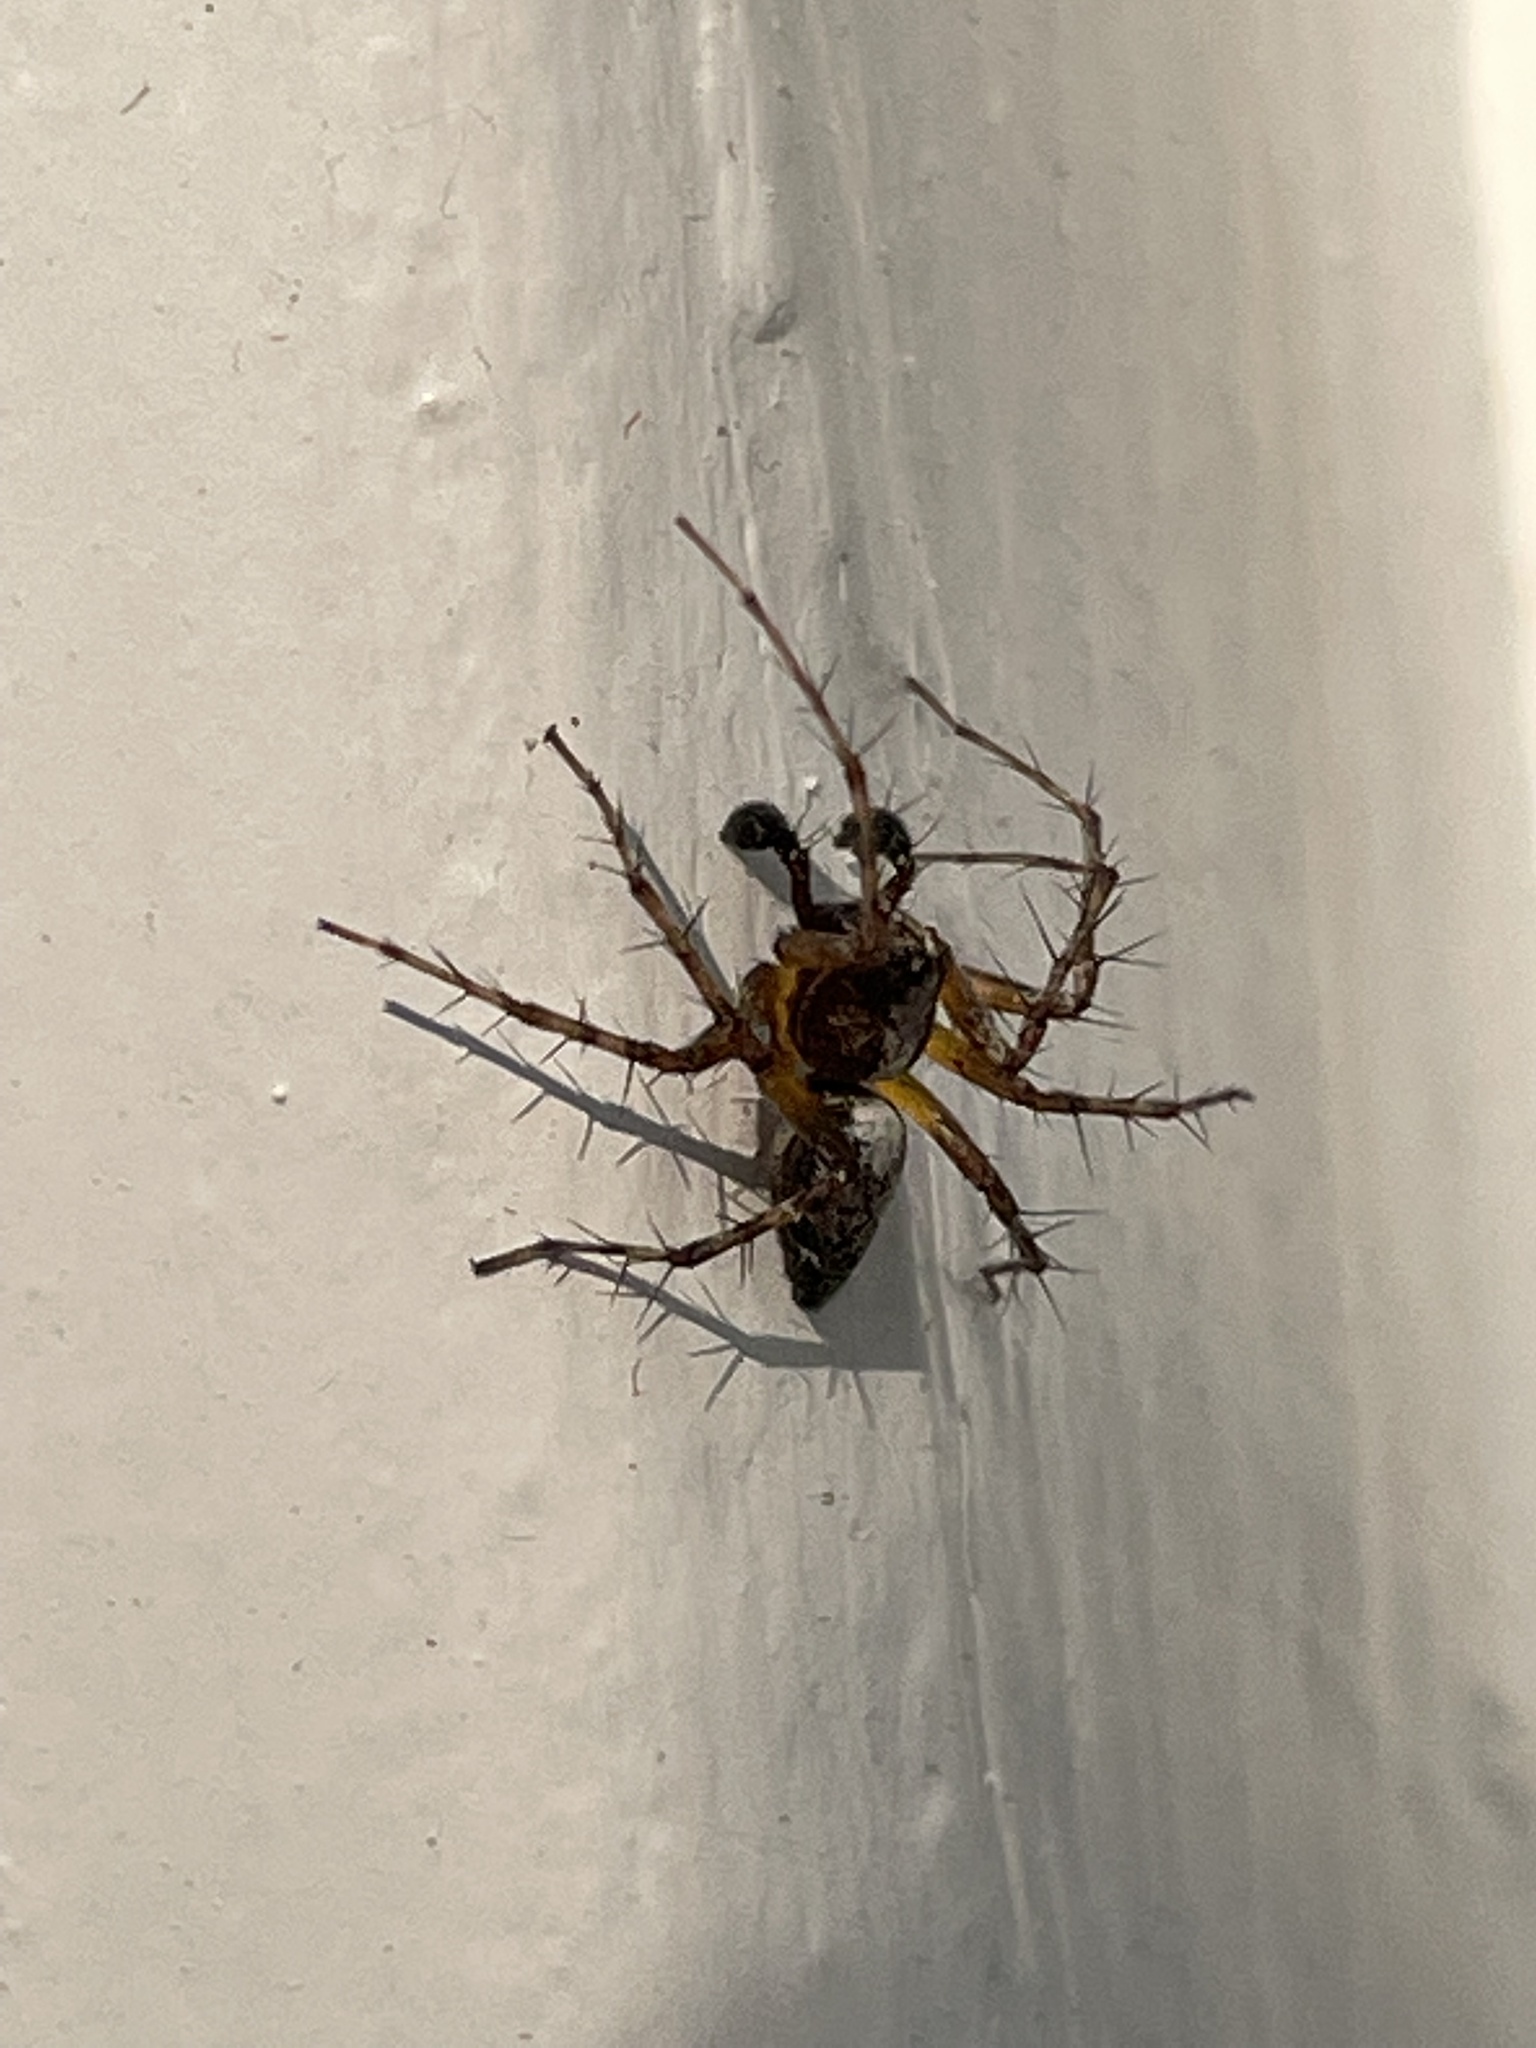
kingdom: Animalia
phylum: Arthropoda
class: Arachnida
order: Araneae
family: Oxyopidae
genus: Oxyopes
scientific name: Oxyopes scalaris
